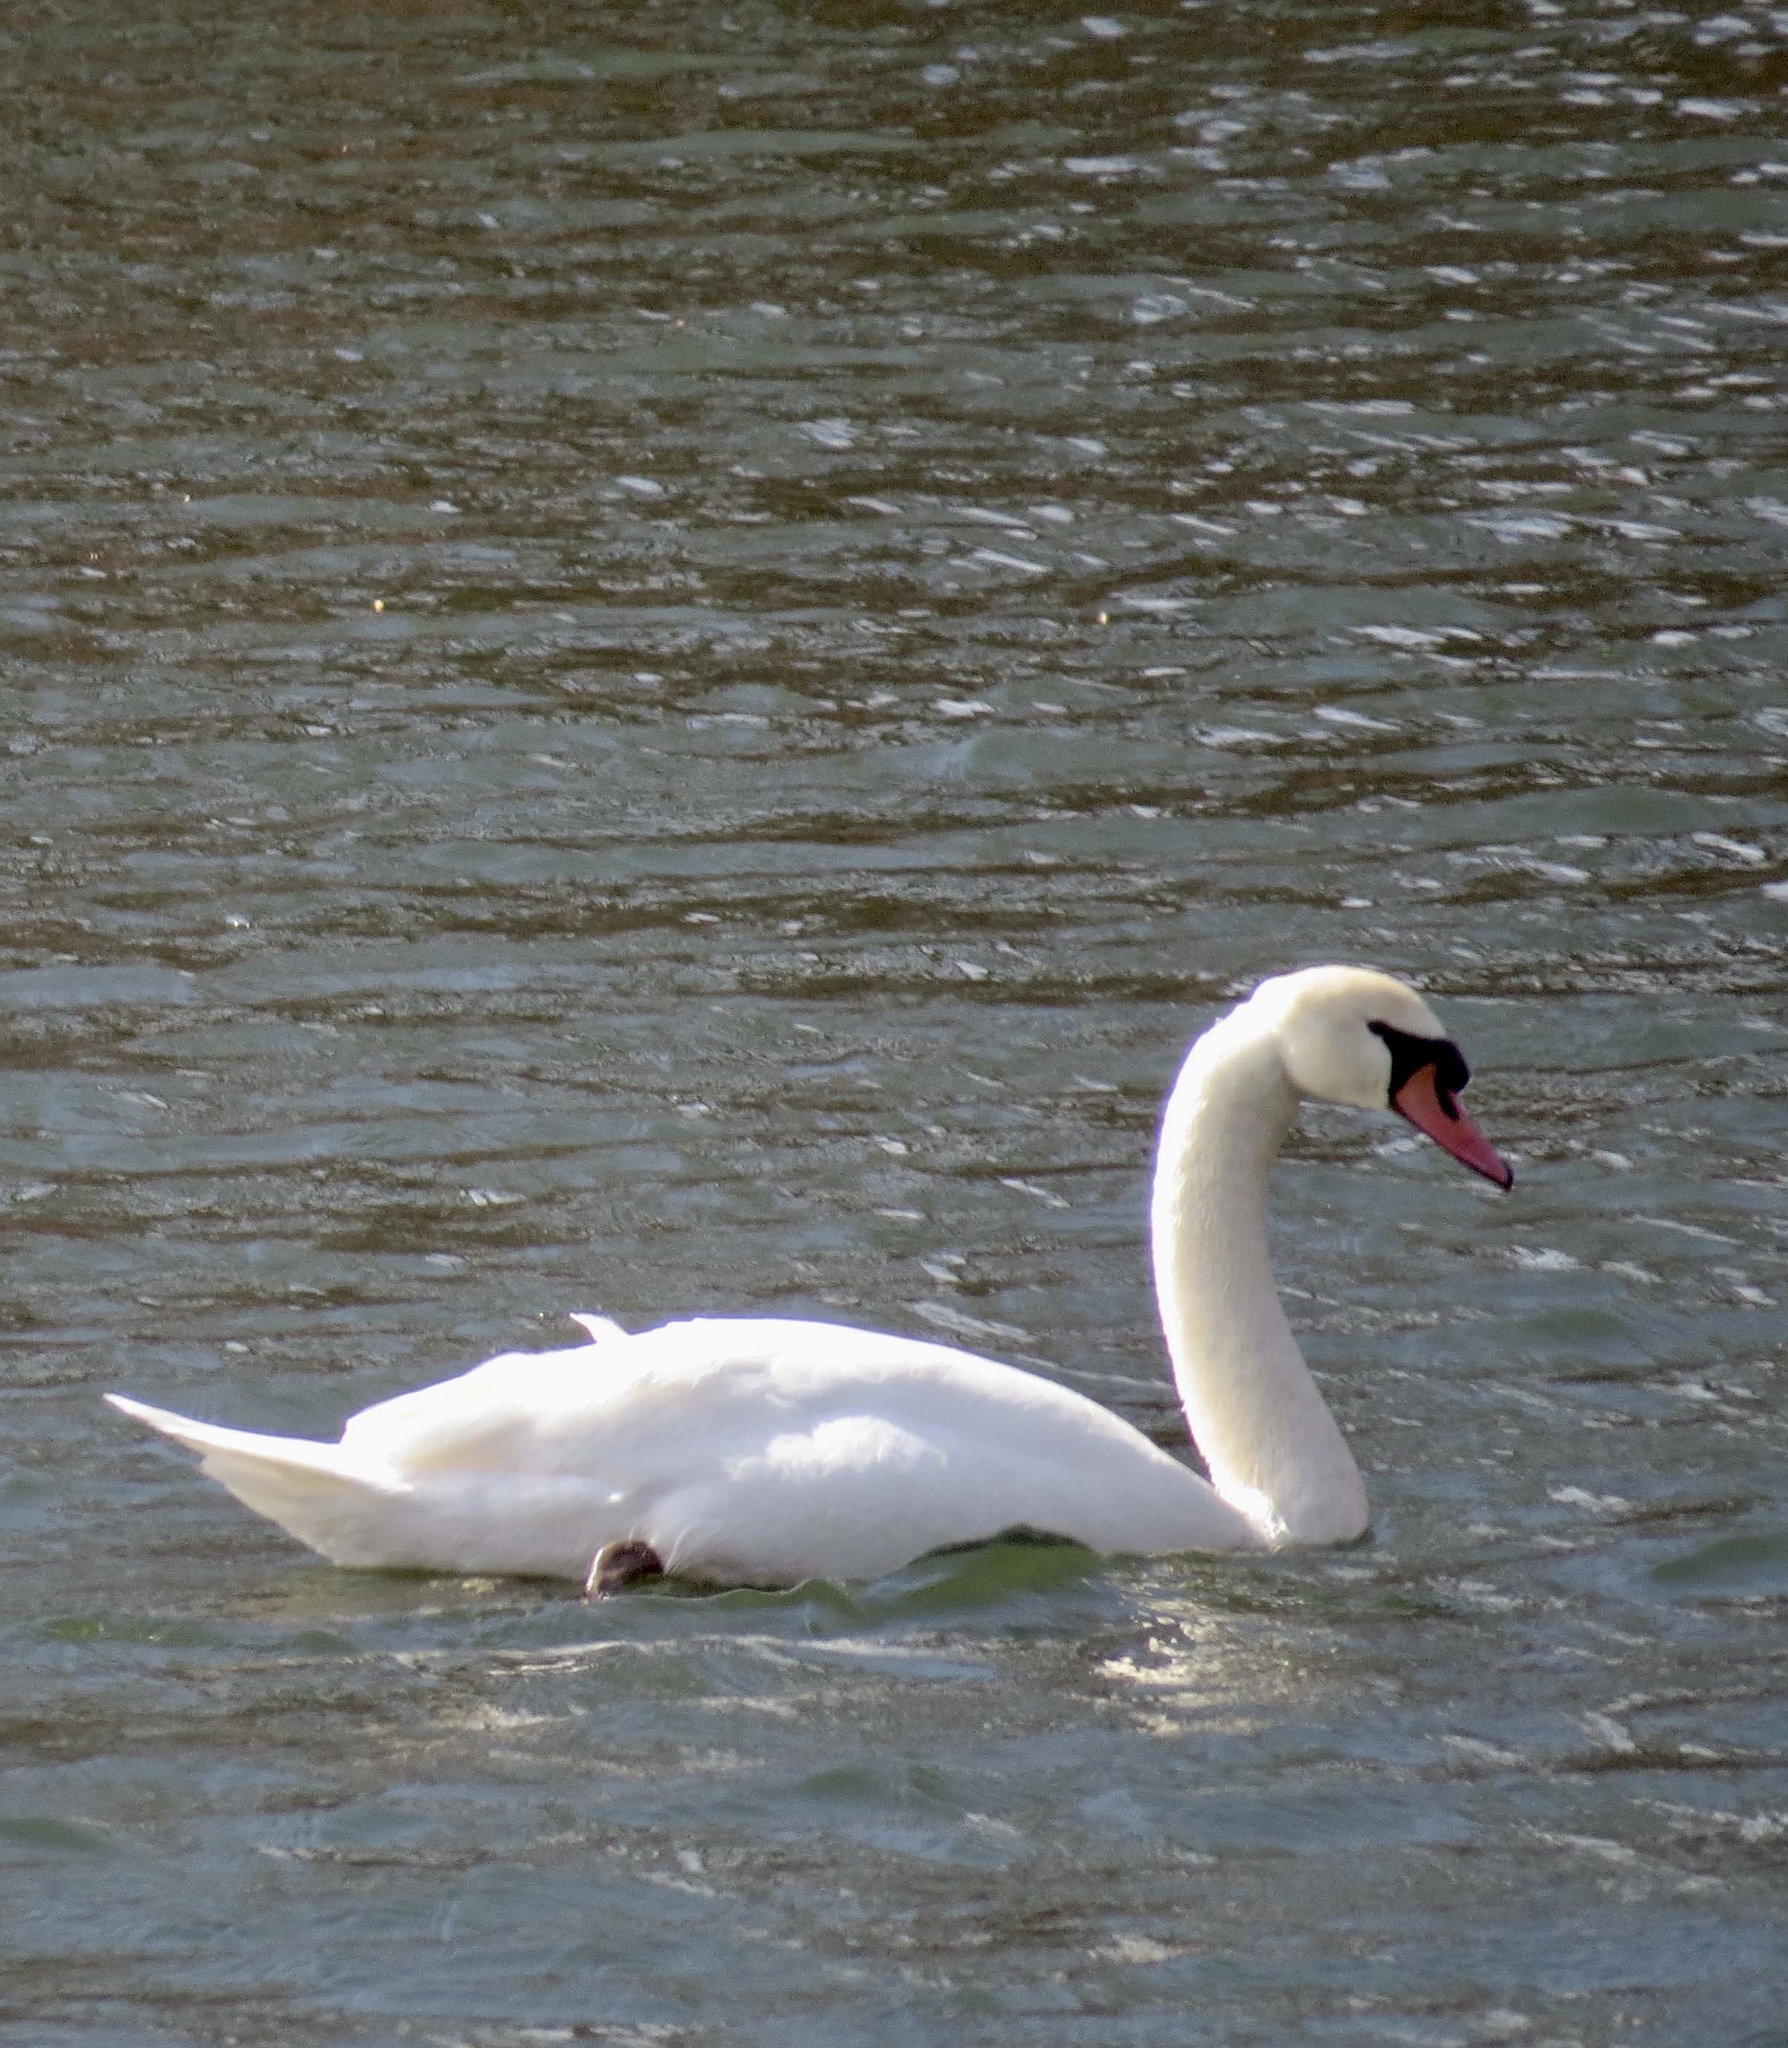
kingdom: Animalia
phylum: Chordata
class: Aves
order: Anseriformes
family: Anatidae
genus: Cygnus
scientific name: Cygnus olor
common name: Mute swan
